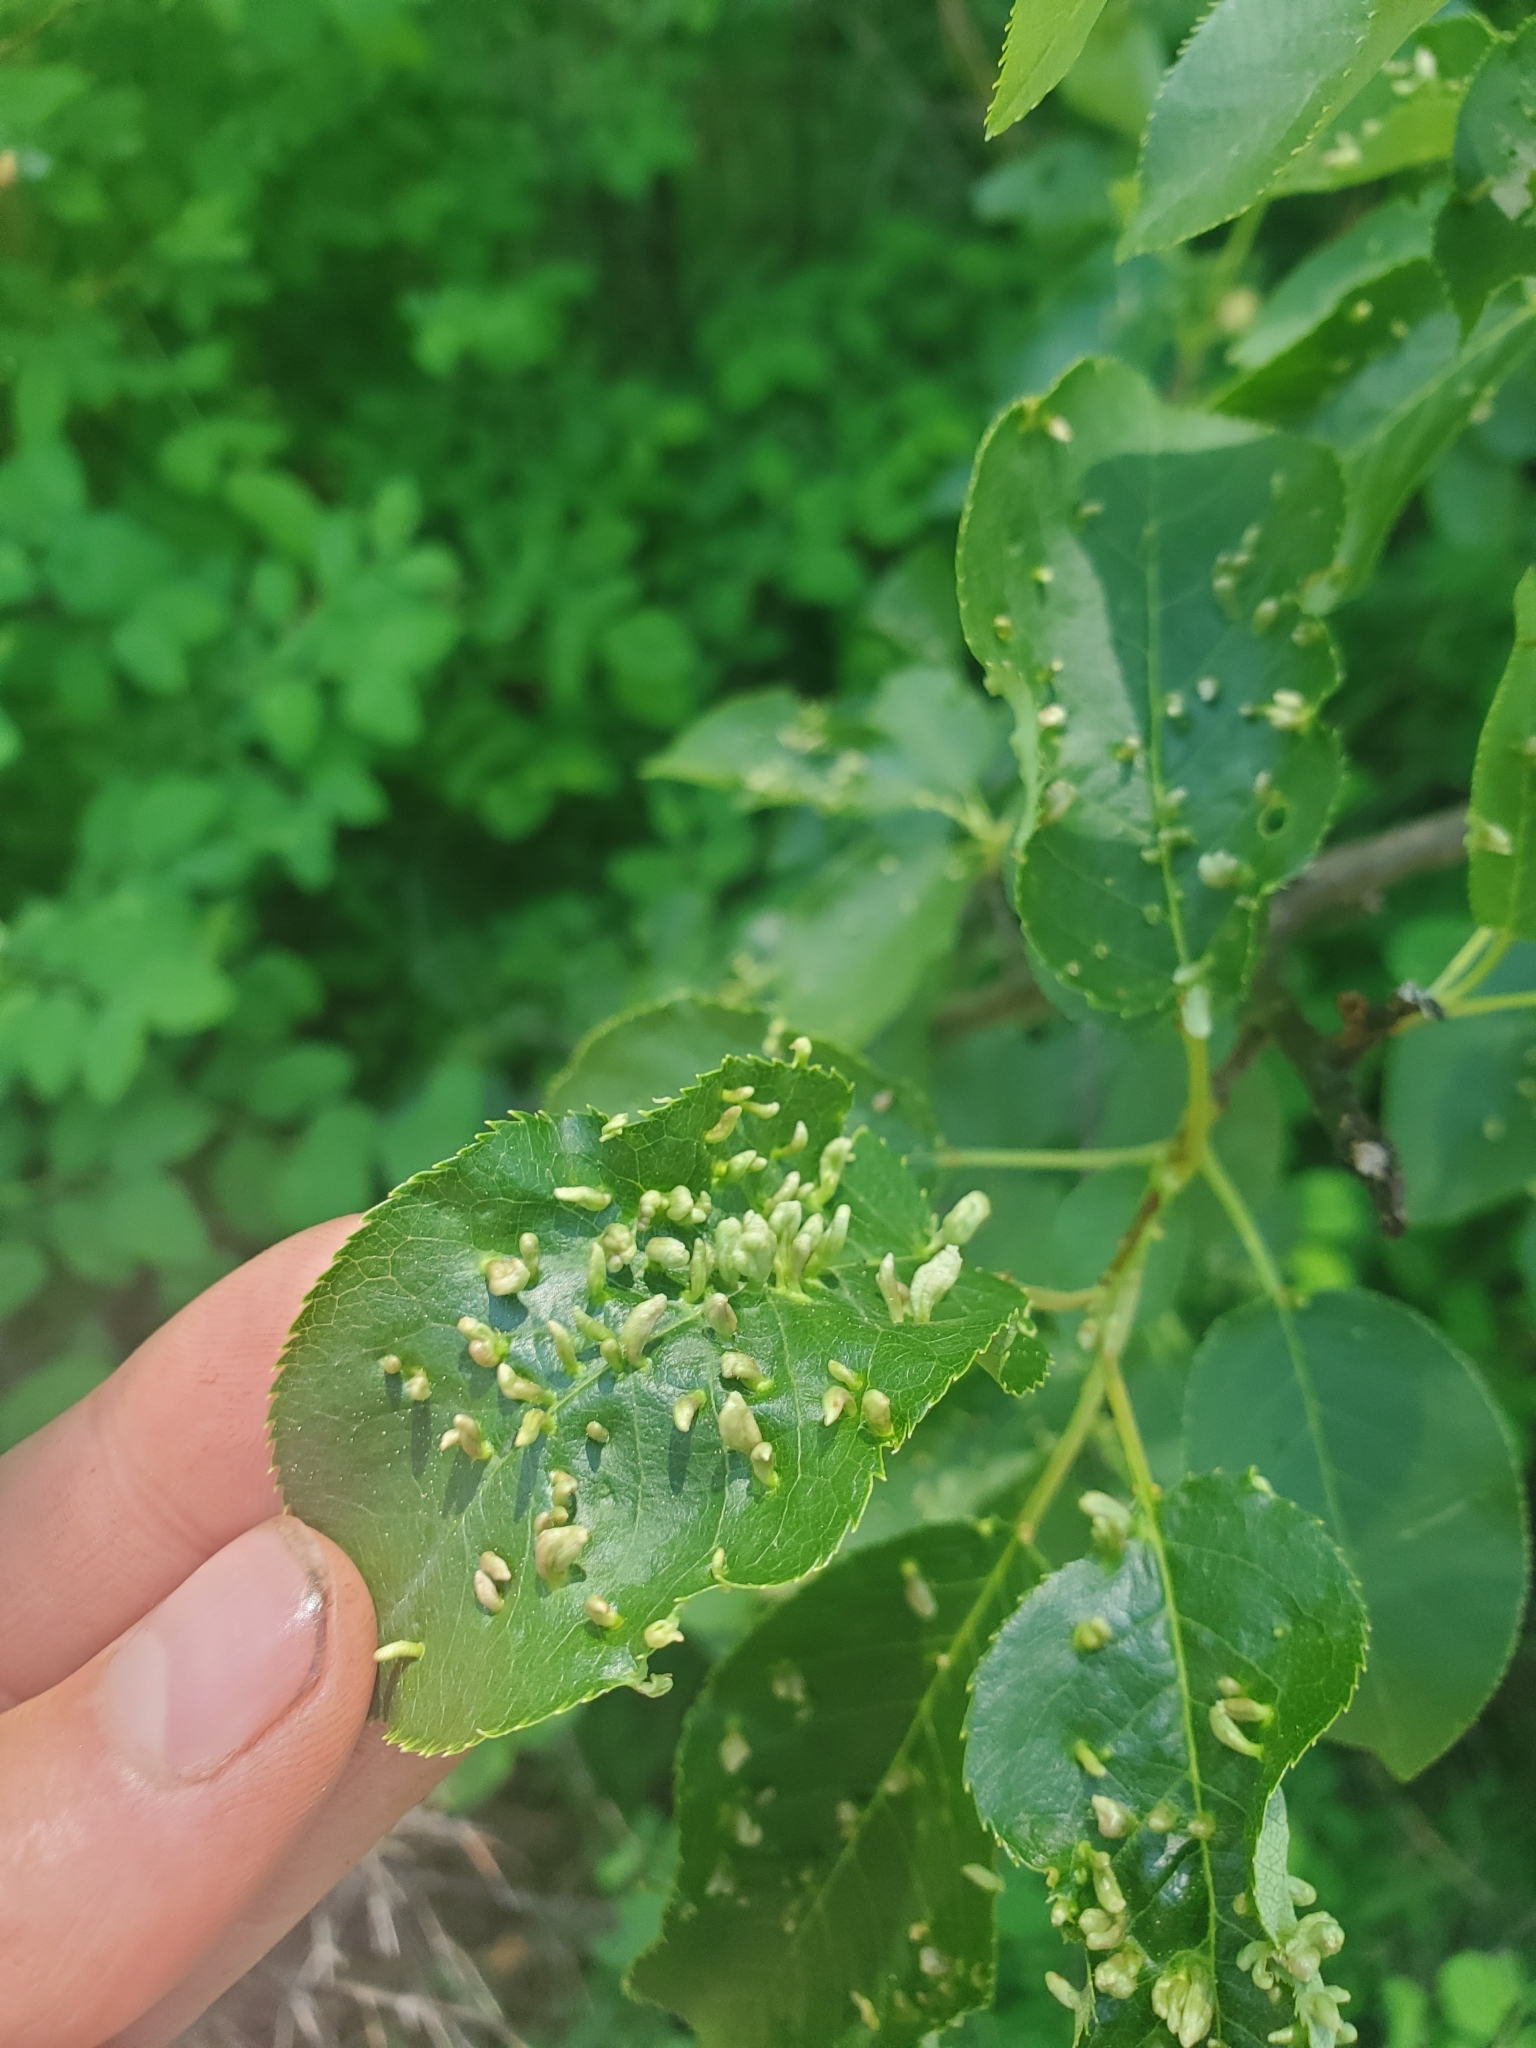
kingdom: Animalia
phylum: Arthropoda
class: Arachnida
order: Trombidiformes
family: Eriophyidae
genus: Eriophyes
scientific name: Eriophyes emarginatae
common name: Plum leaf gall mite
